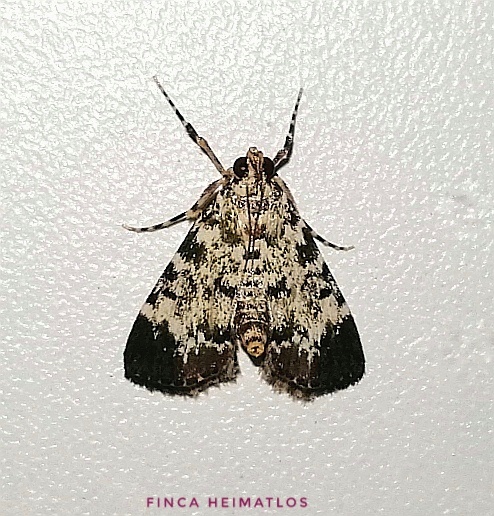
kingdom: Animalia
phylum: Arthropoda
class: Insecta
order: Lepidoptera
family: Pyralidae
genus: Stericta
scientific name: Stericta
